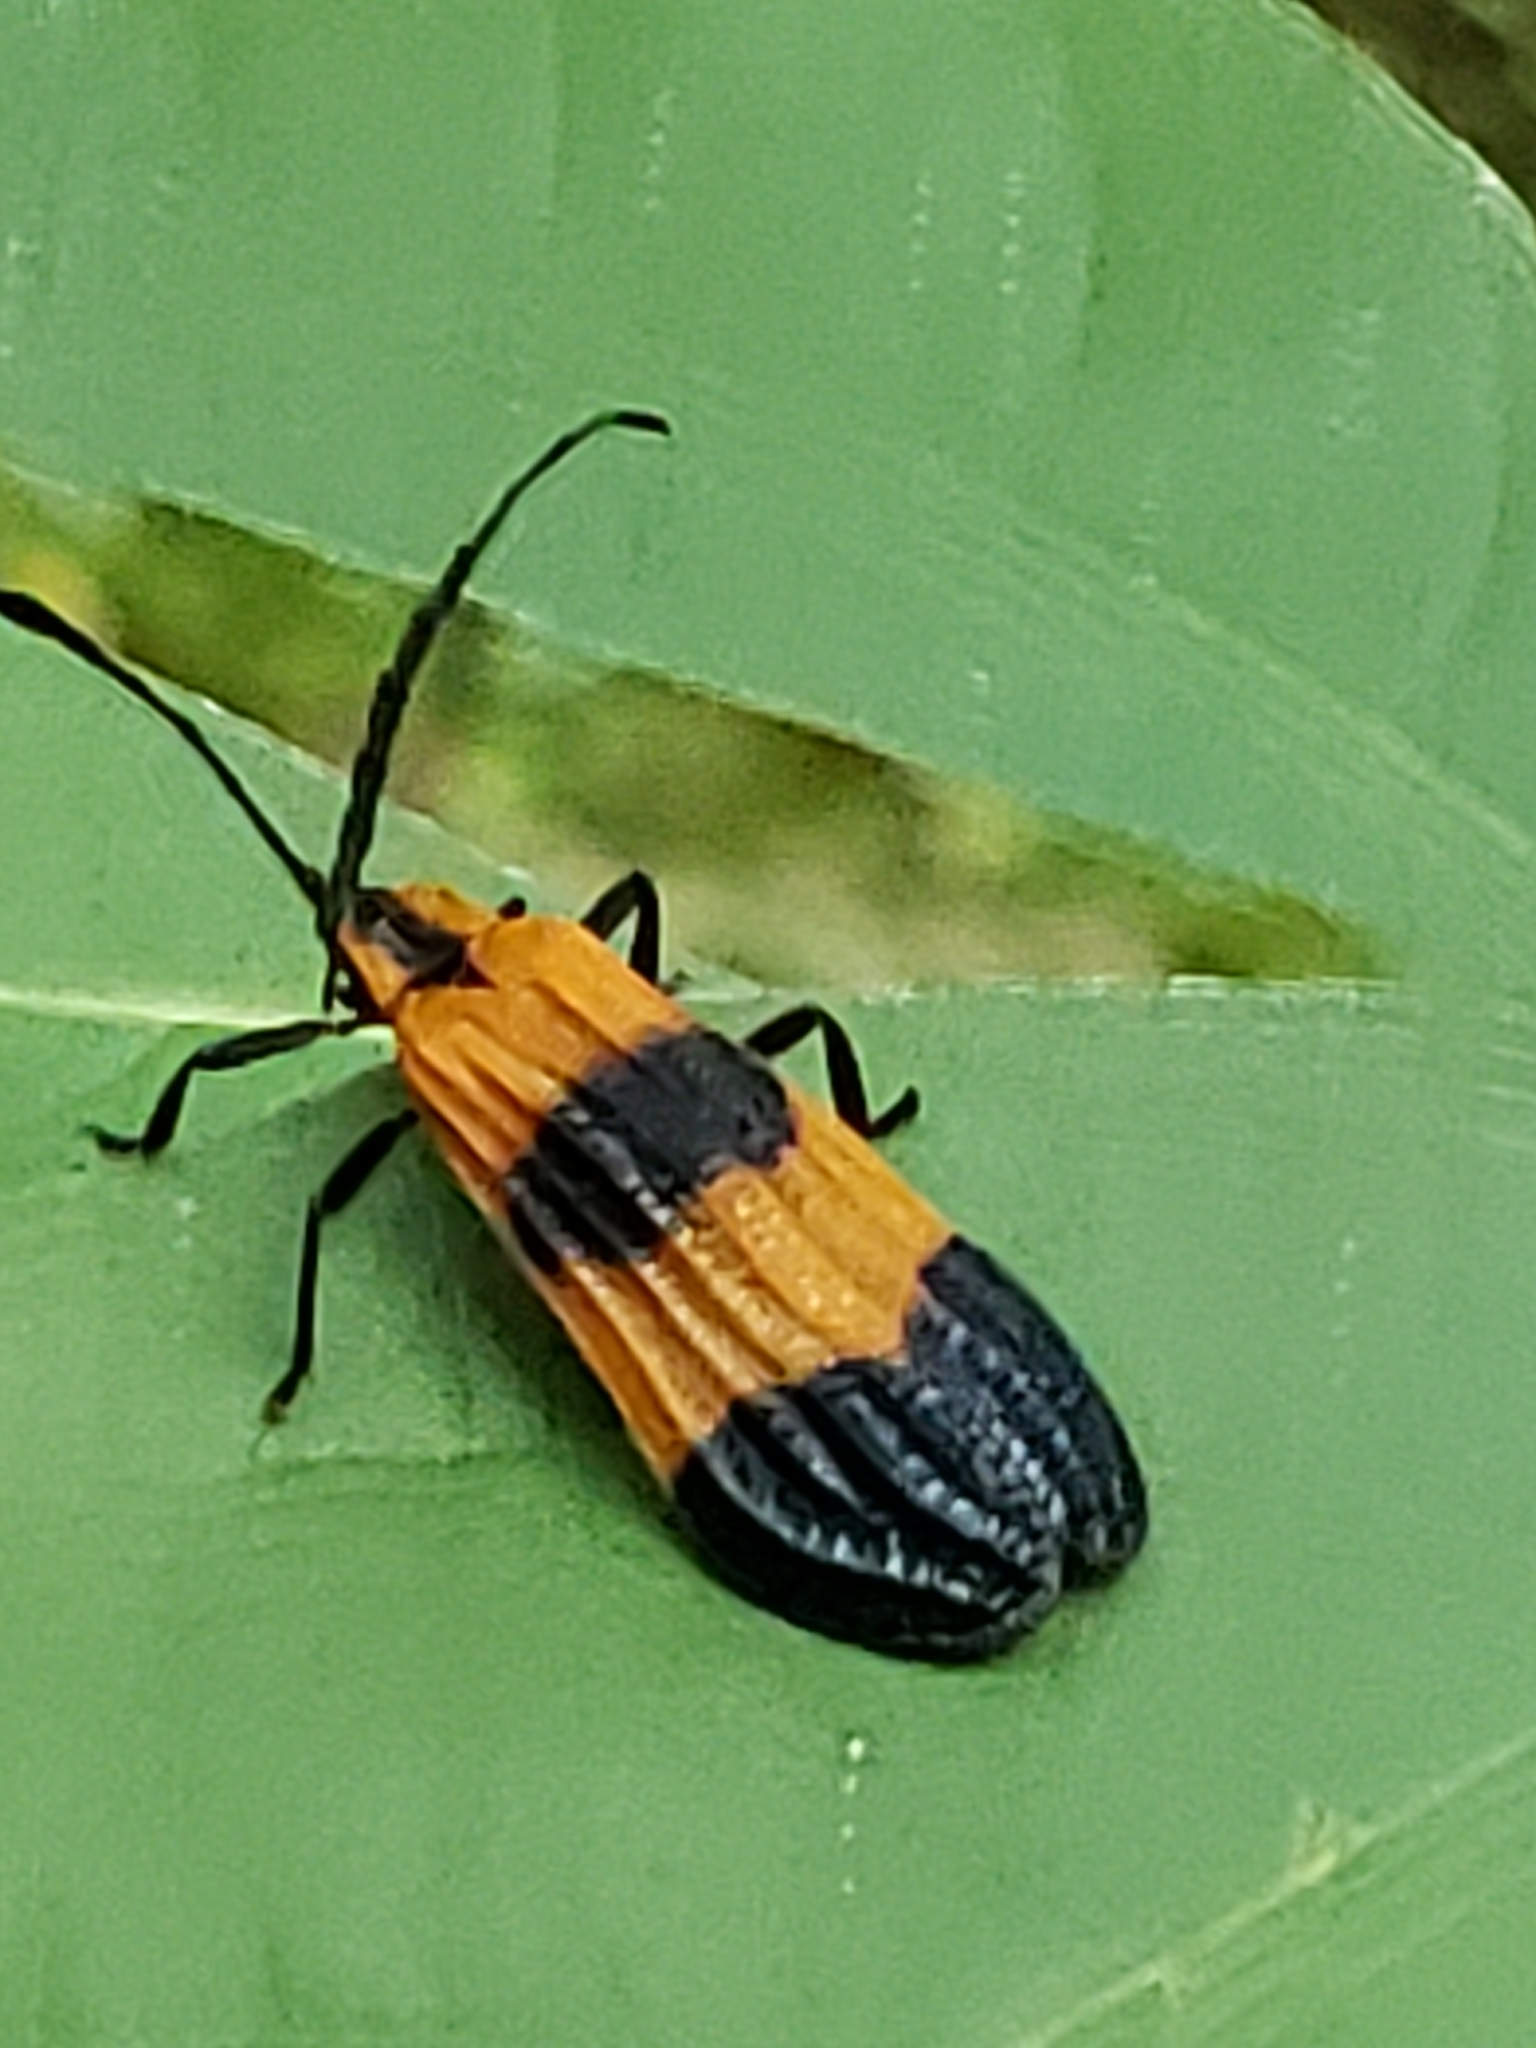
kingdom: Animalia
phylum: Arthropoda
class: Insecta
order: Coleoptera
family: Lycidae
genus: Calopteron
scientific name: Calopteron terminale
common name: End band net-winged beetle
